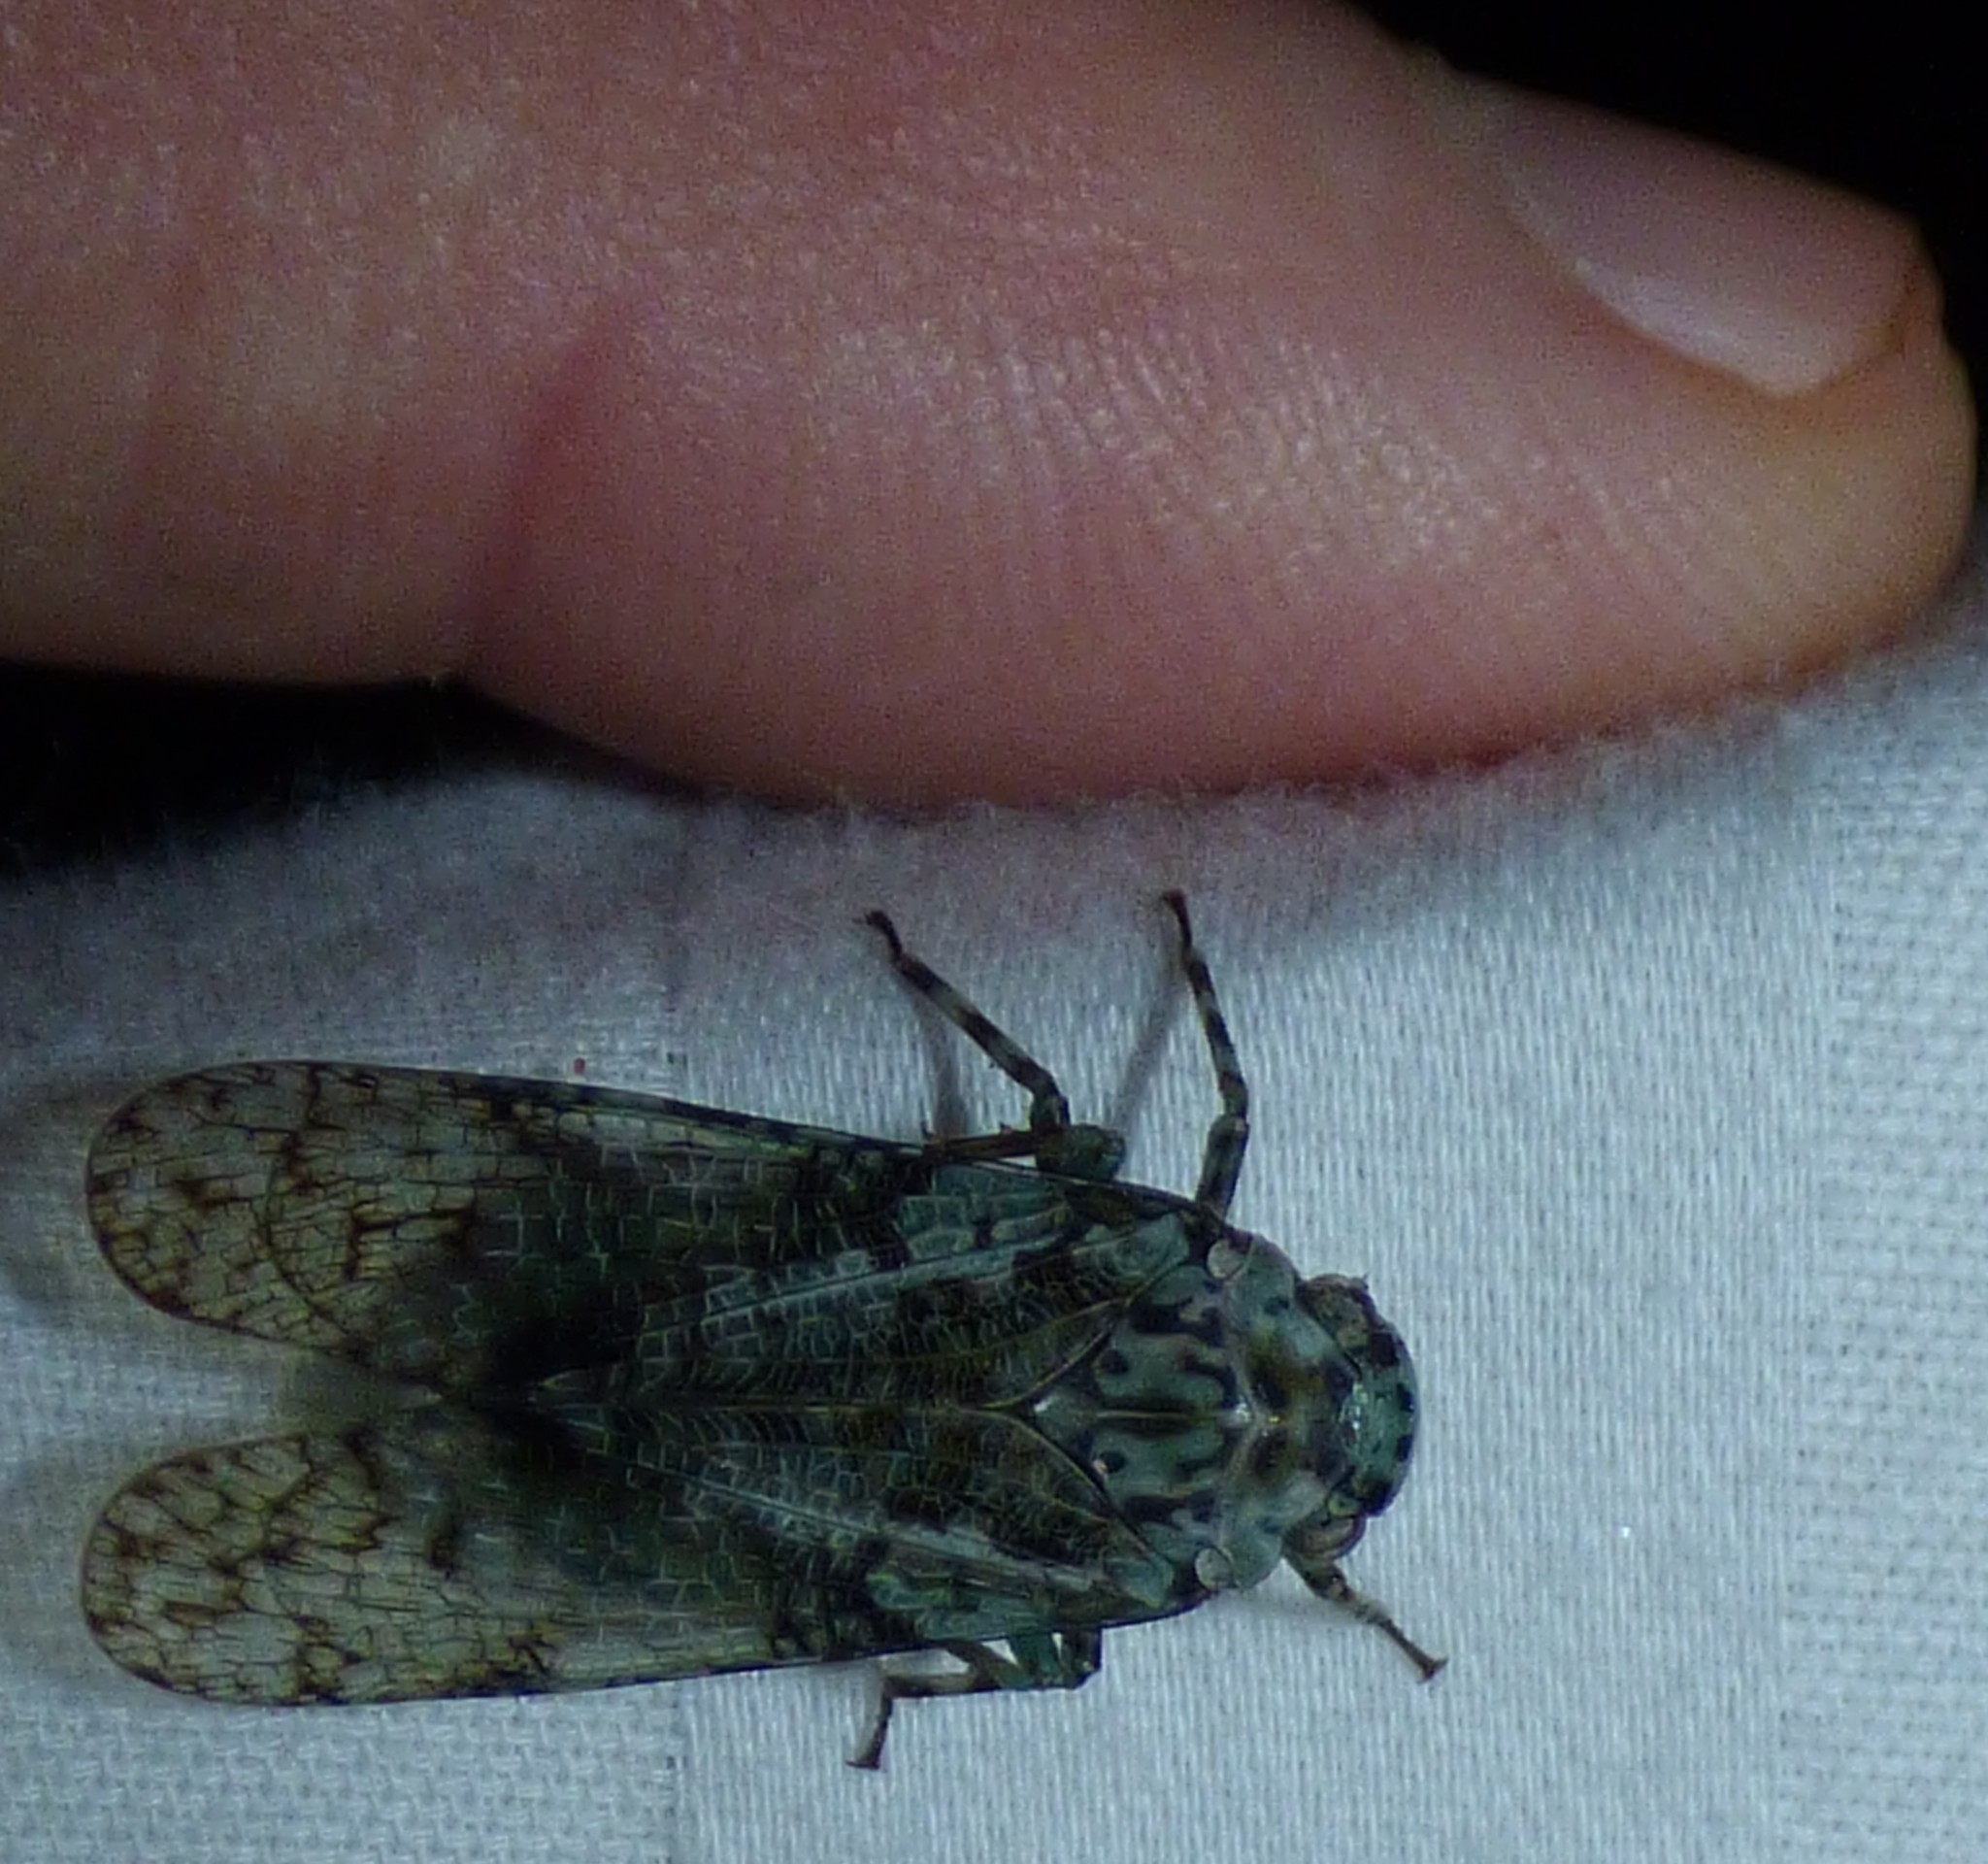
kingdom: Animalia
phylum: Arthropoda
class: Insecta
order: Hemiptera
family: Fulgoridae
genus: Calyptoproctus
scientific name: Calyptoproctus marmoratus
